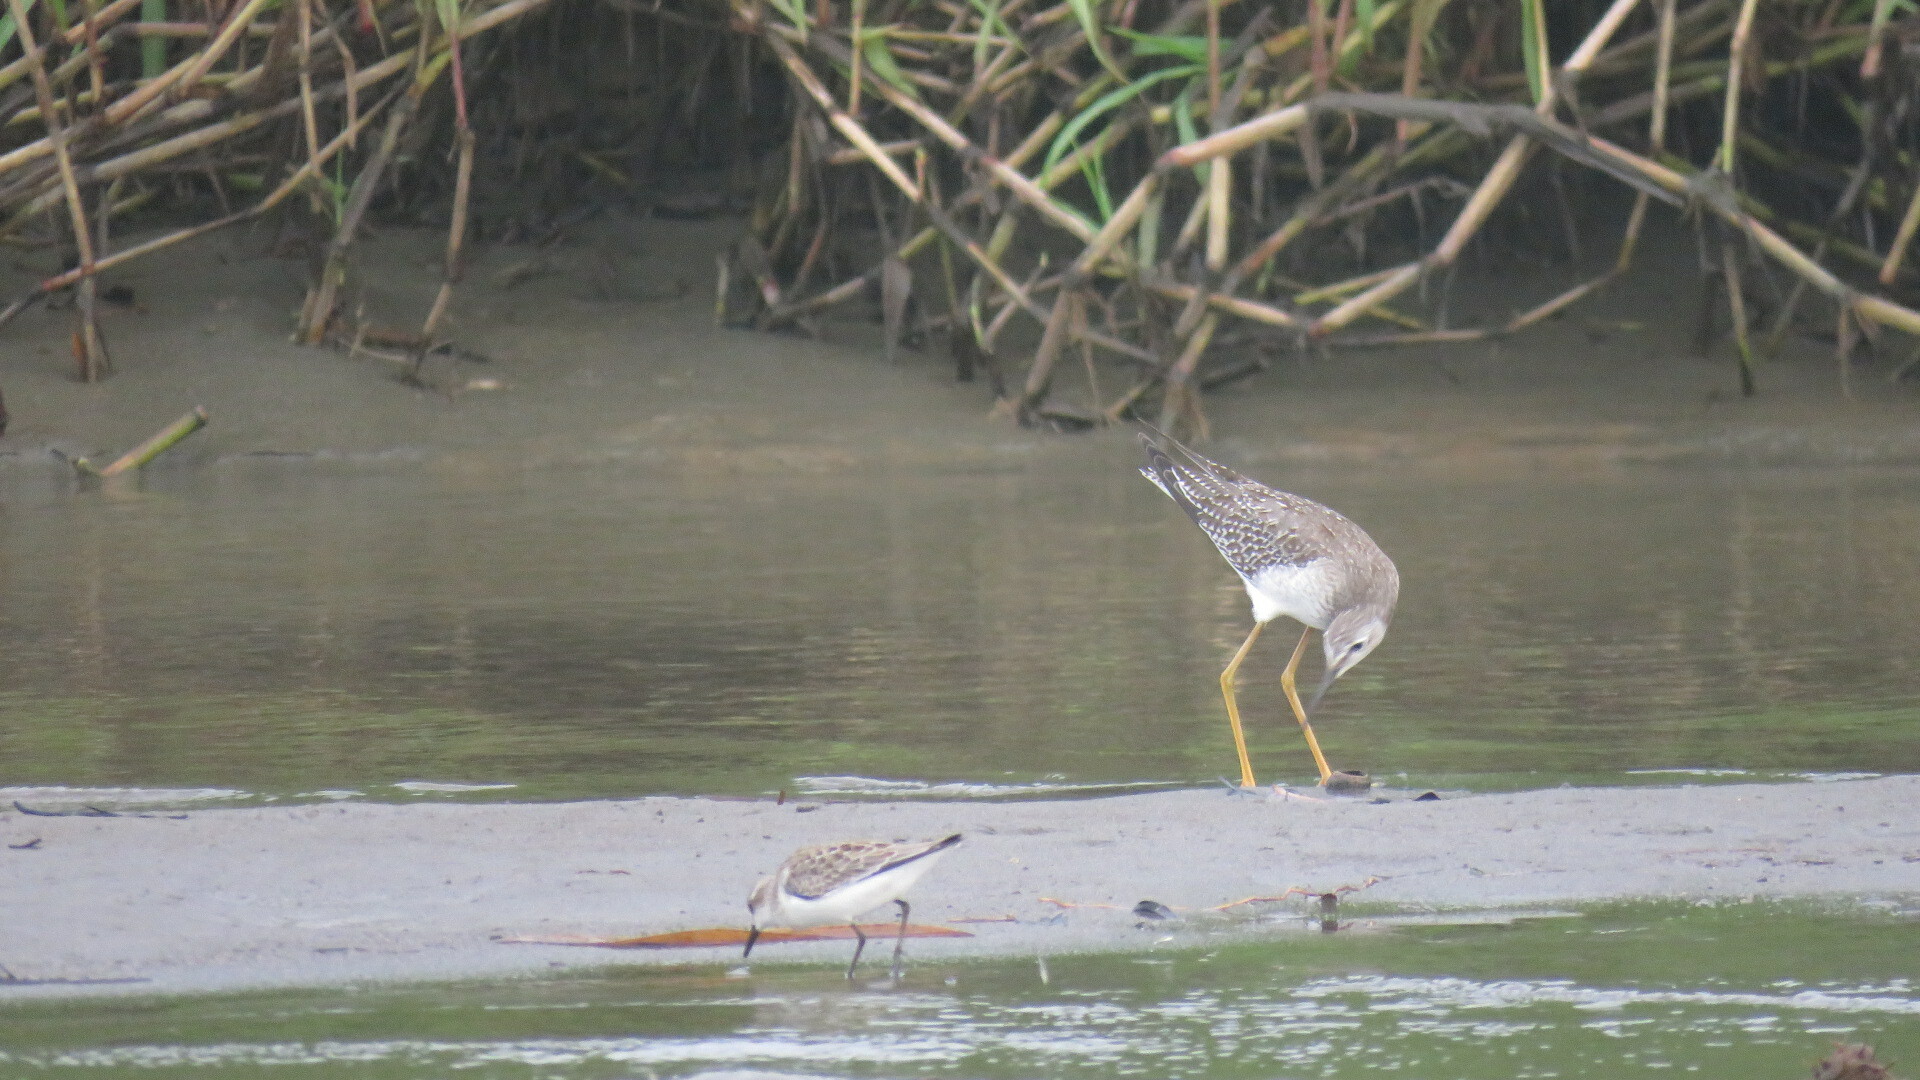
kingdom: Animalia
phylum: Chordata
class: Aves
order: Charadriiformes
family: Scolopacidae
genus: Tringa
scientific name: Tringa flavipes
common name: Lesser yellowlegs
